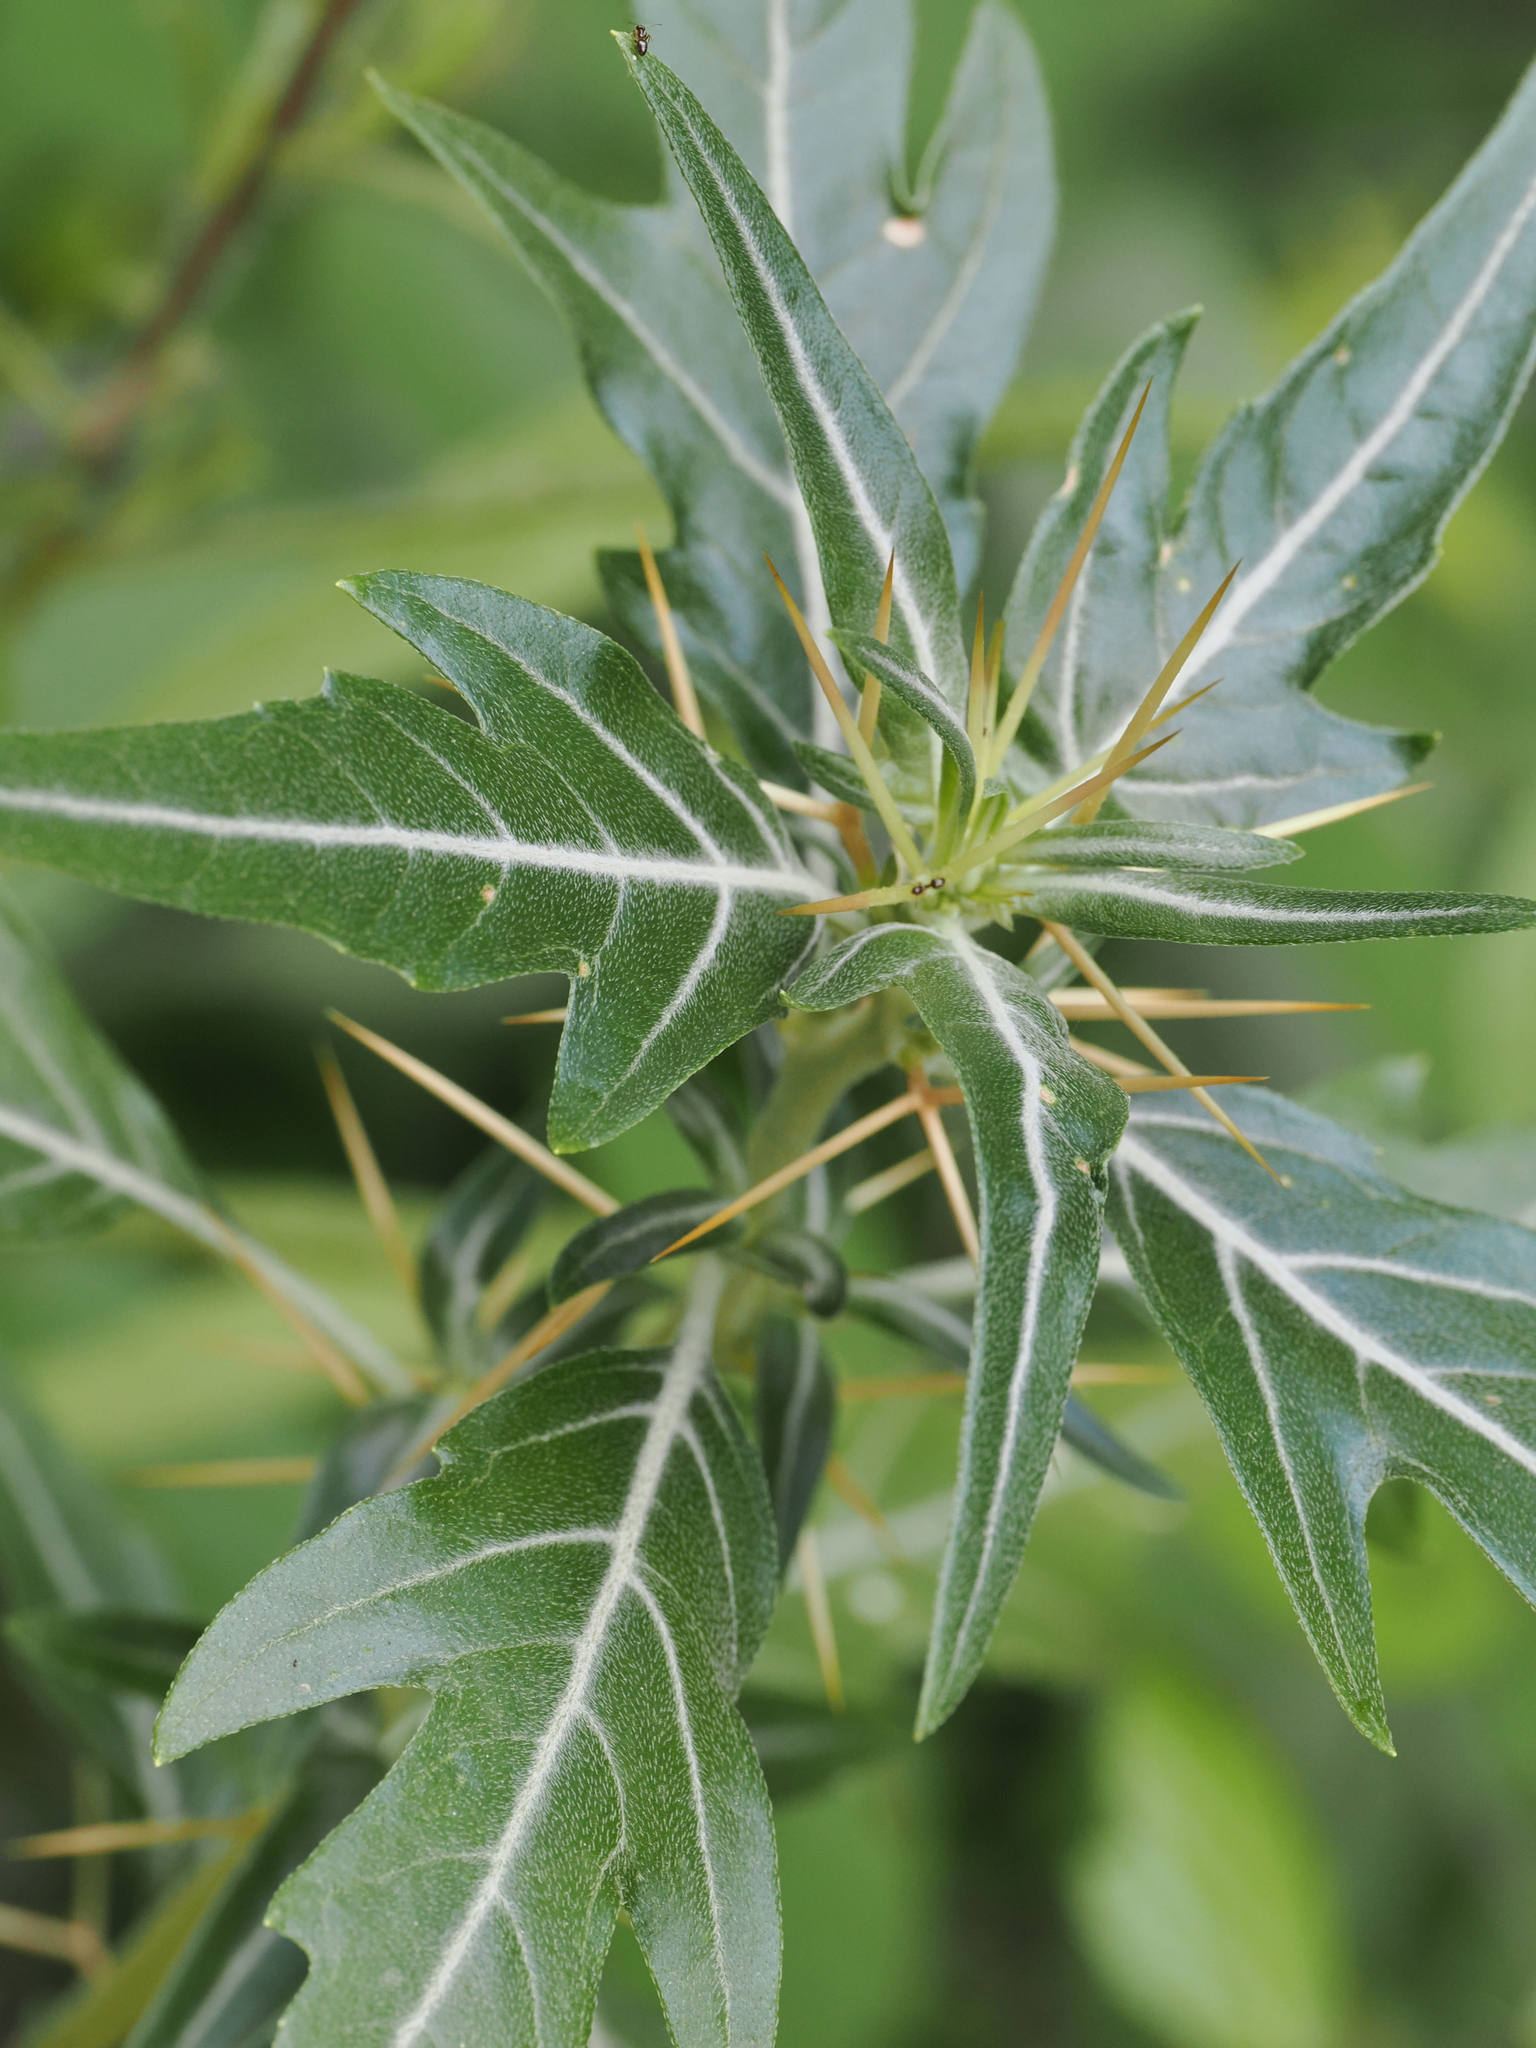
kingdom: Plantae
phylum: Tracheophyta
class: Magnoliopsida
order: Asterales
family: Asteraceae
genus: Xanthium
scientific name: Xanthium spinosum
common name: Spiny cocklebur
